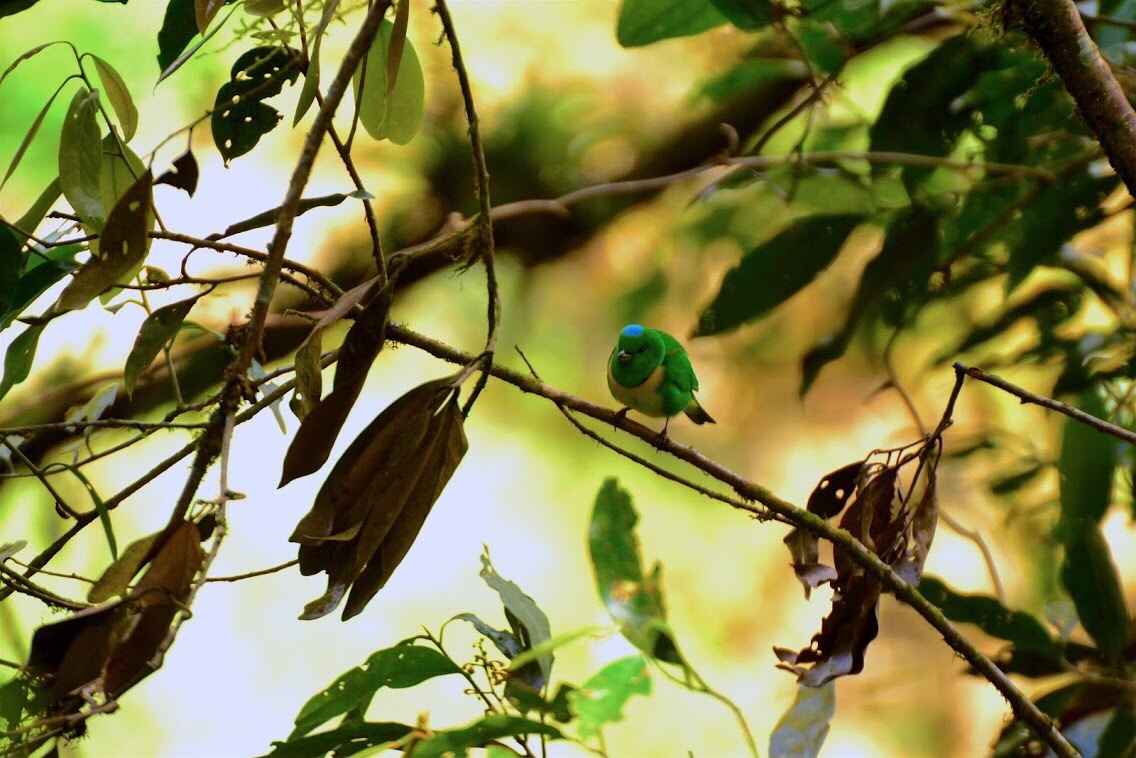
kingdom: Animalia
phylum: Chordata
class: Aves
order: Passeriformes
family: Fringillidae
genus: Chlorophonia
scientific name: Chlorophonia occipitalis
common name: Blue-crowned chlorophonia
